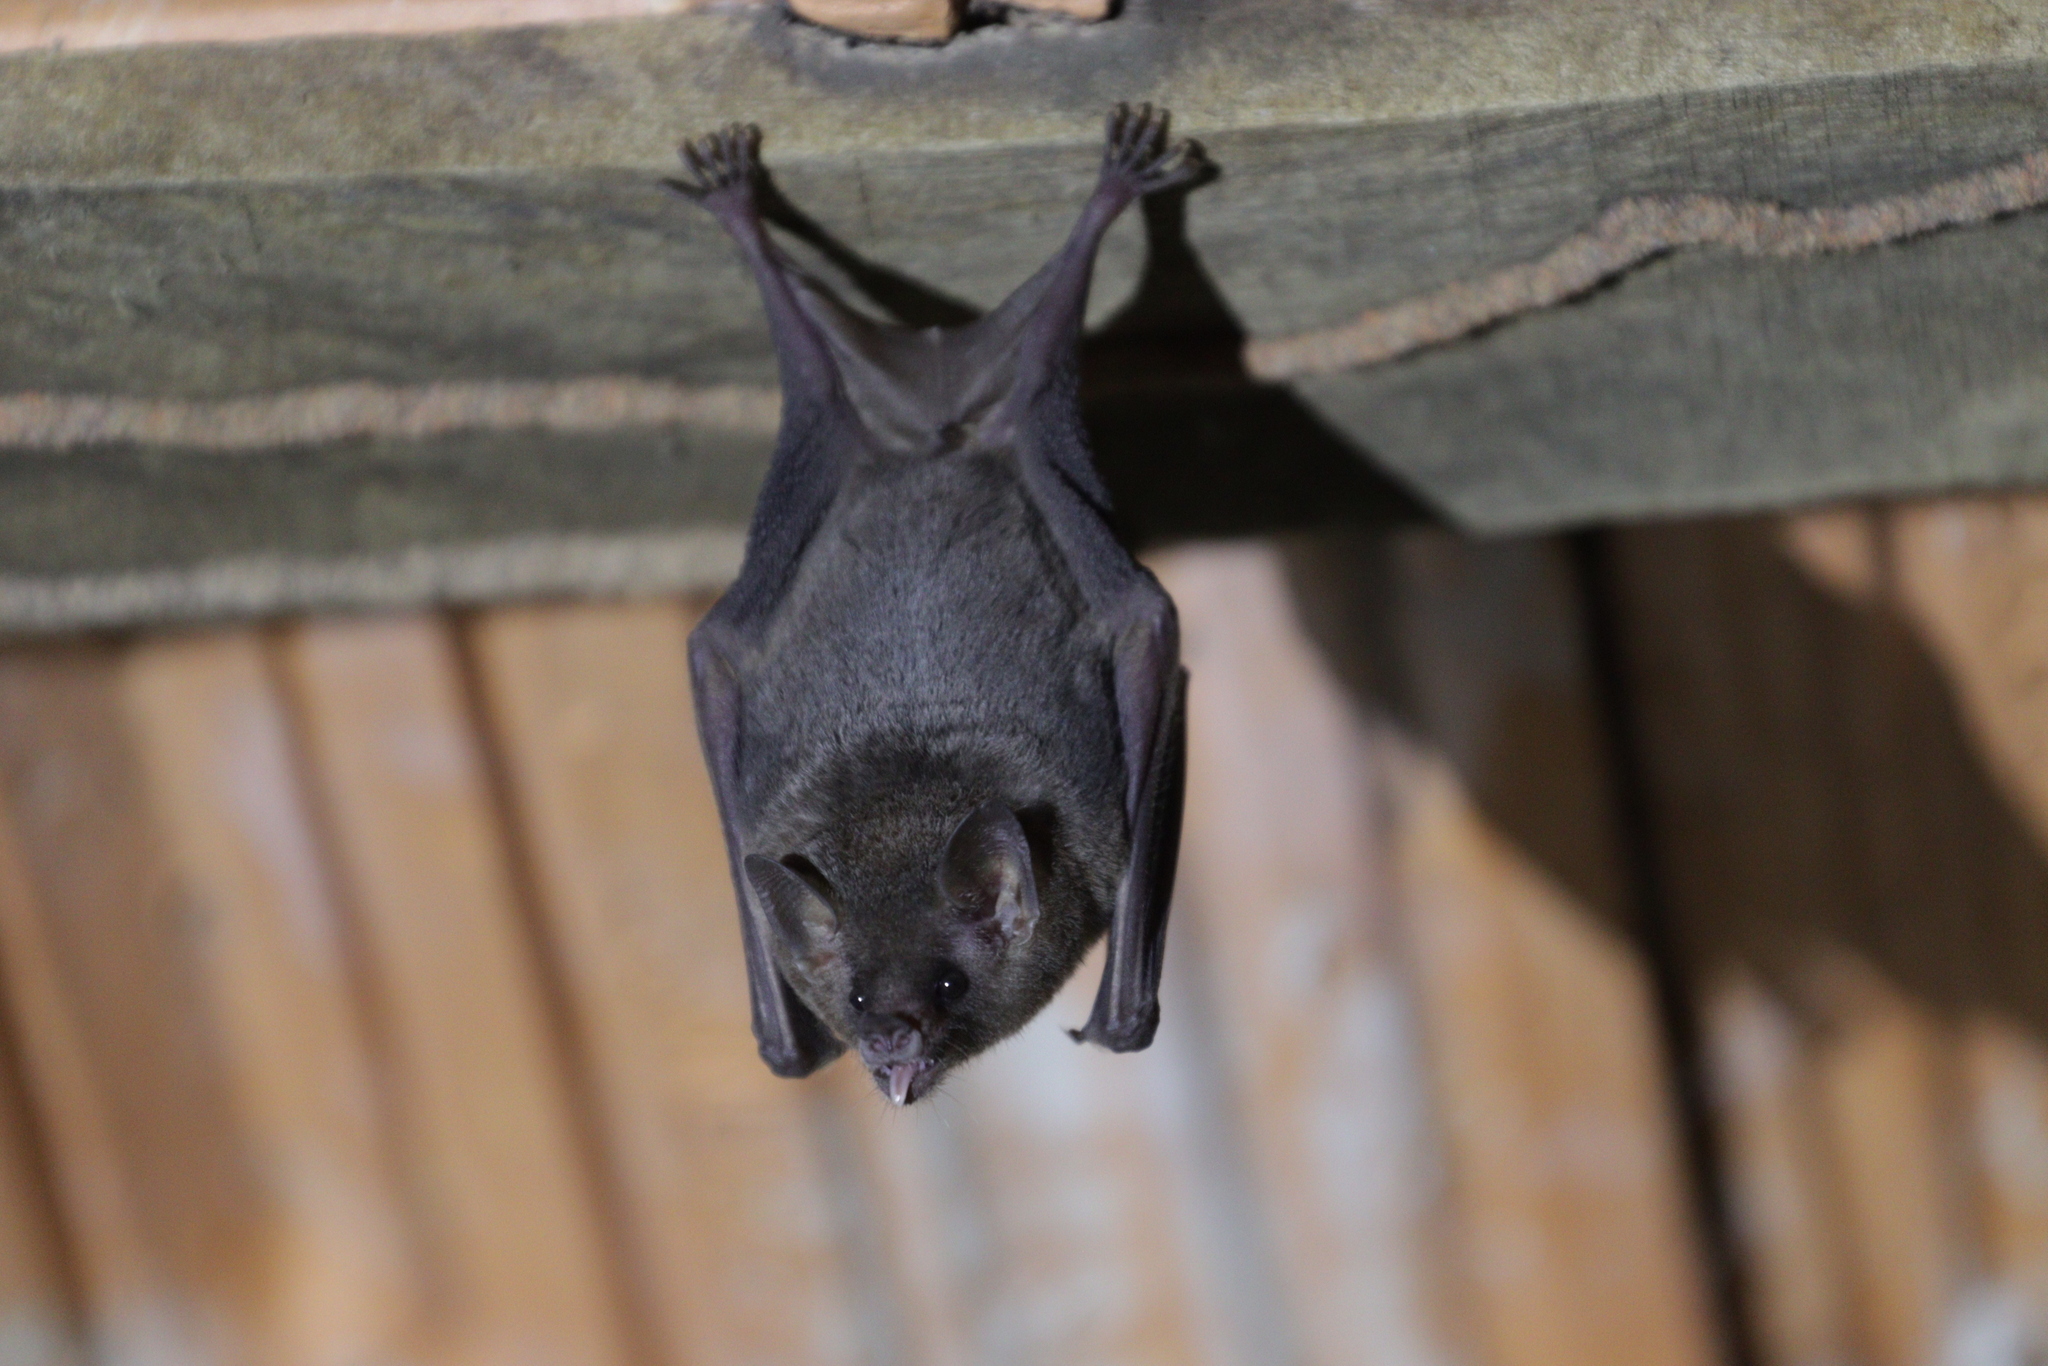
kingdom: Animalia
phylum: Chordata
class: Mammalia
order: Chiroptera
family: Phyllostomidae
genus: Glossophaga
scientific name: Glossophaga soricina
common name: Pallas's long-tongued bat
